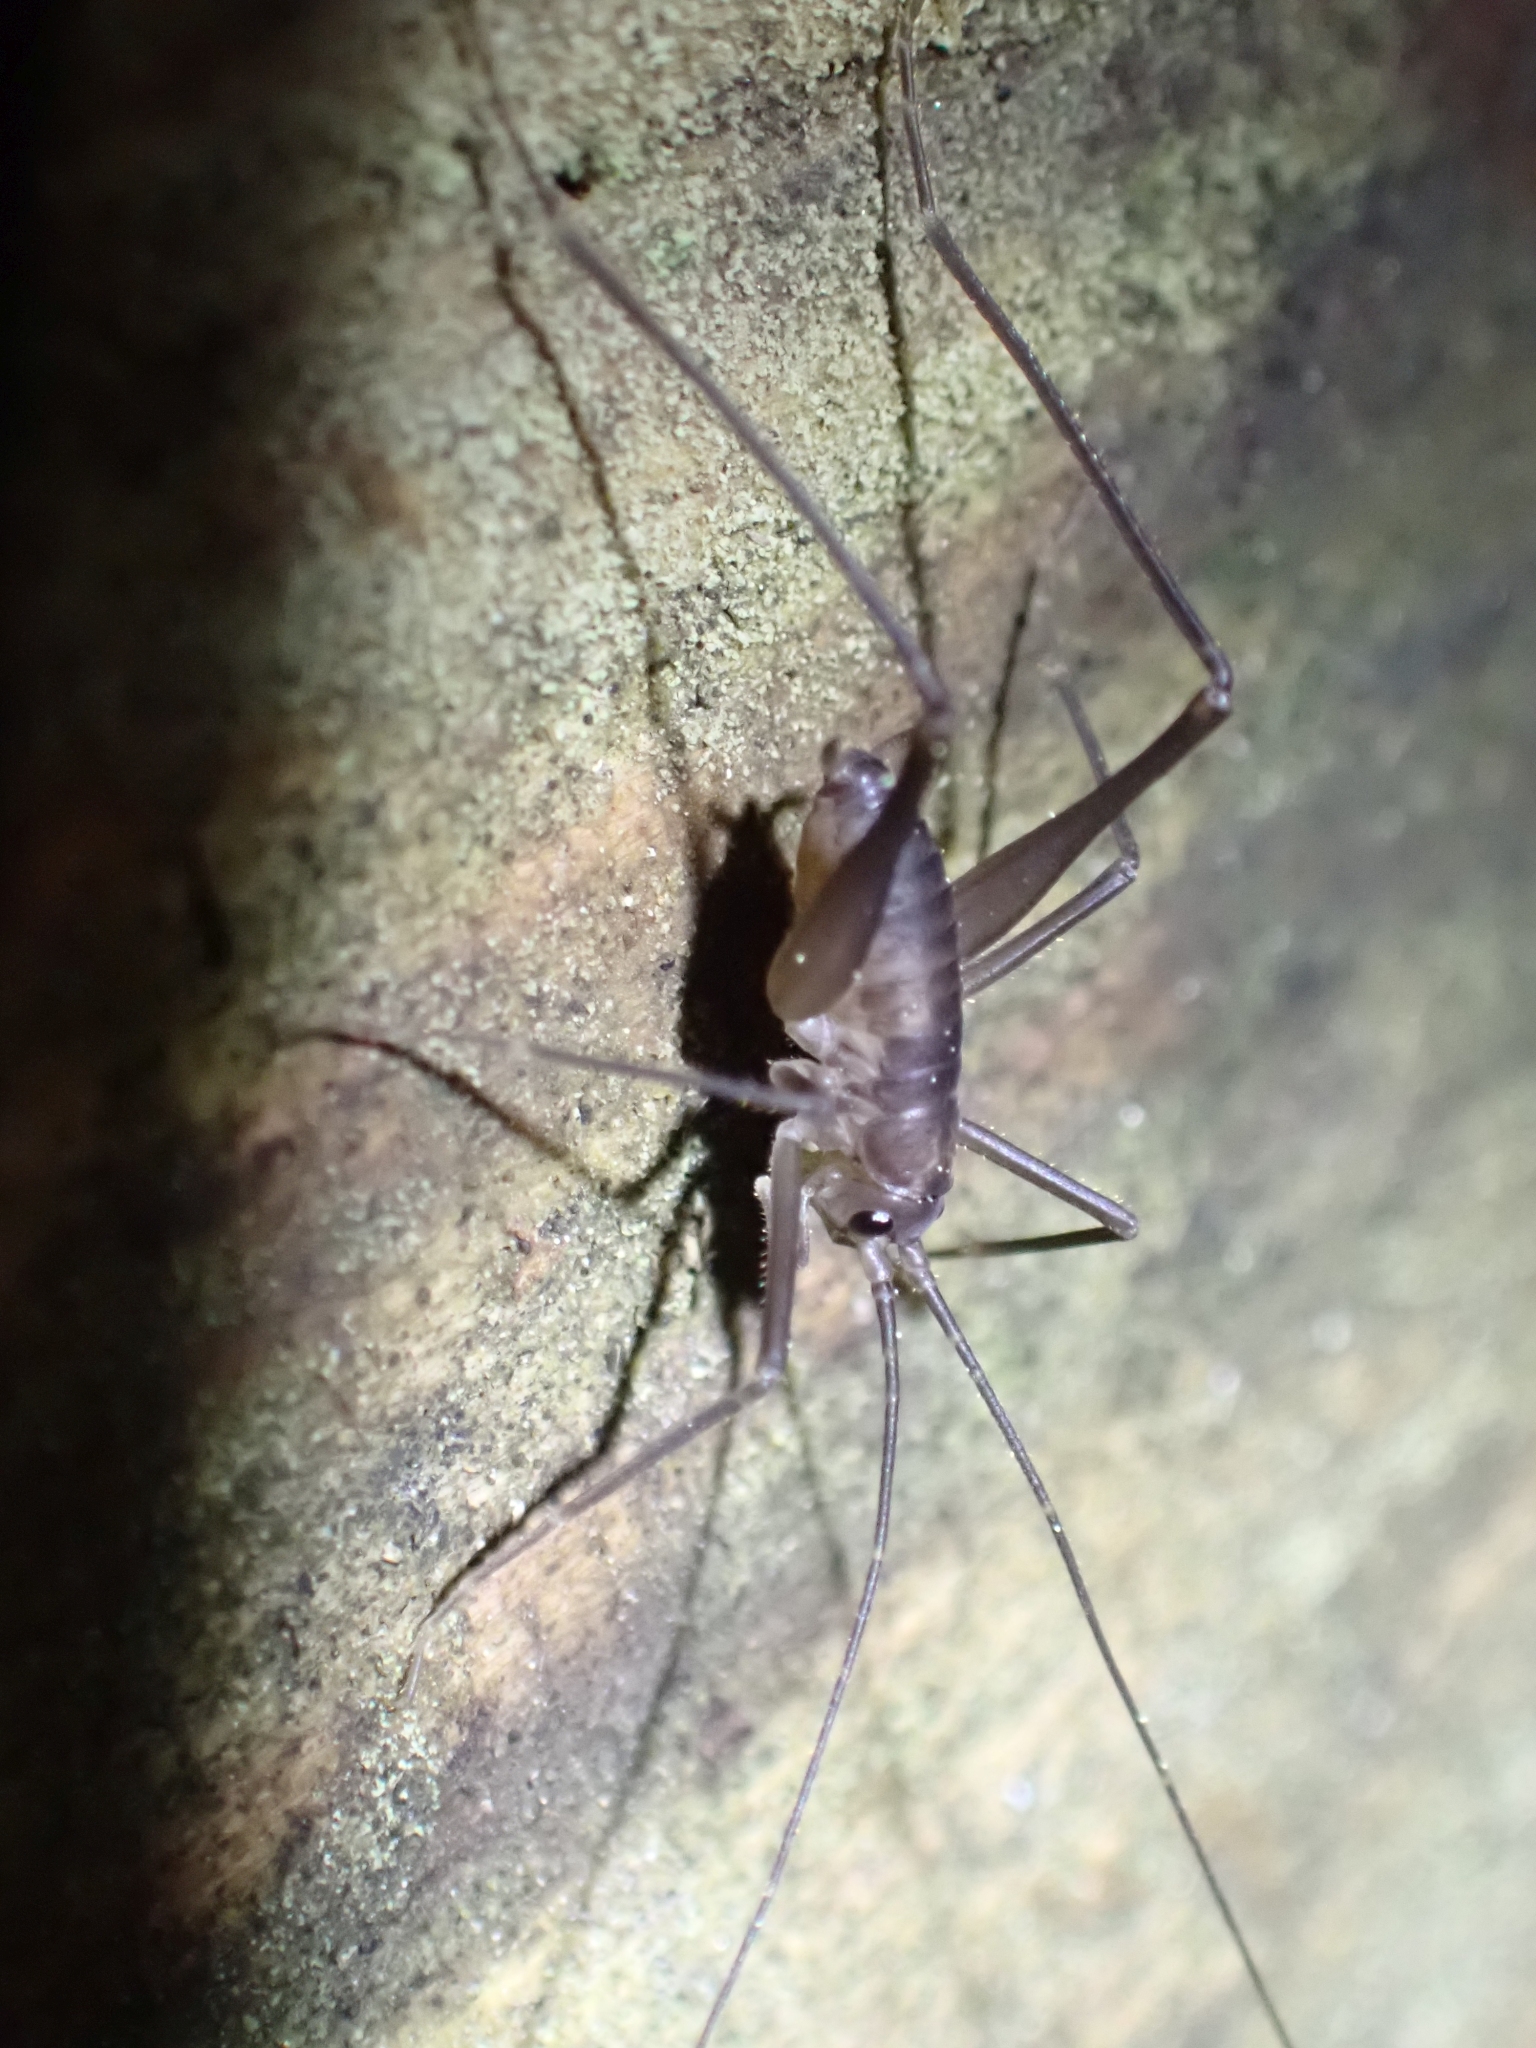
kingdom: Animalia
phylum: Arthropoda
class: Insecta
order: Orthoptera
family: Rhaphidophoridae
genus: Tropidischia
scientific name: Tropidischia xanthostoma
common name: Square-legged camel cricket
